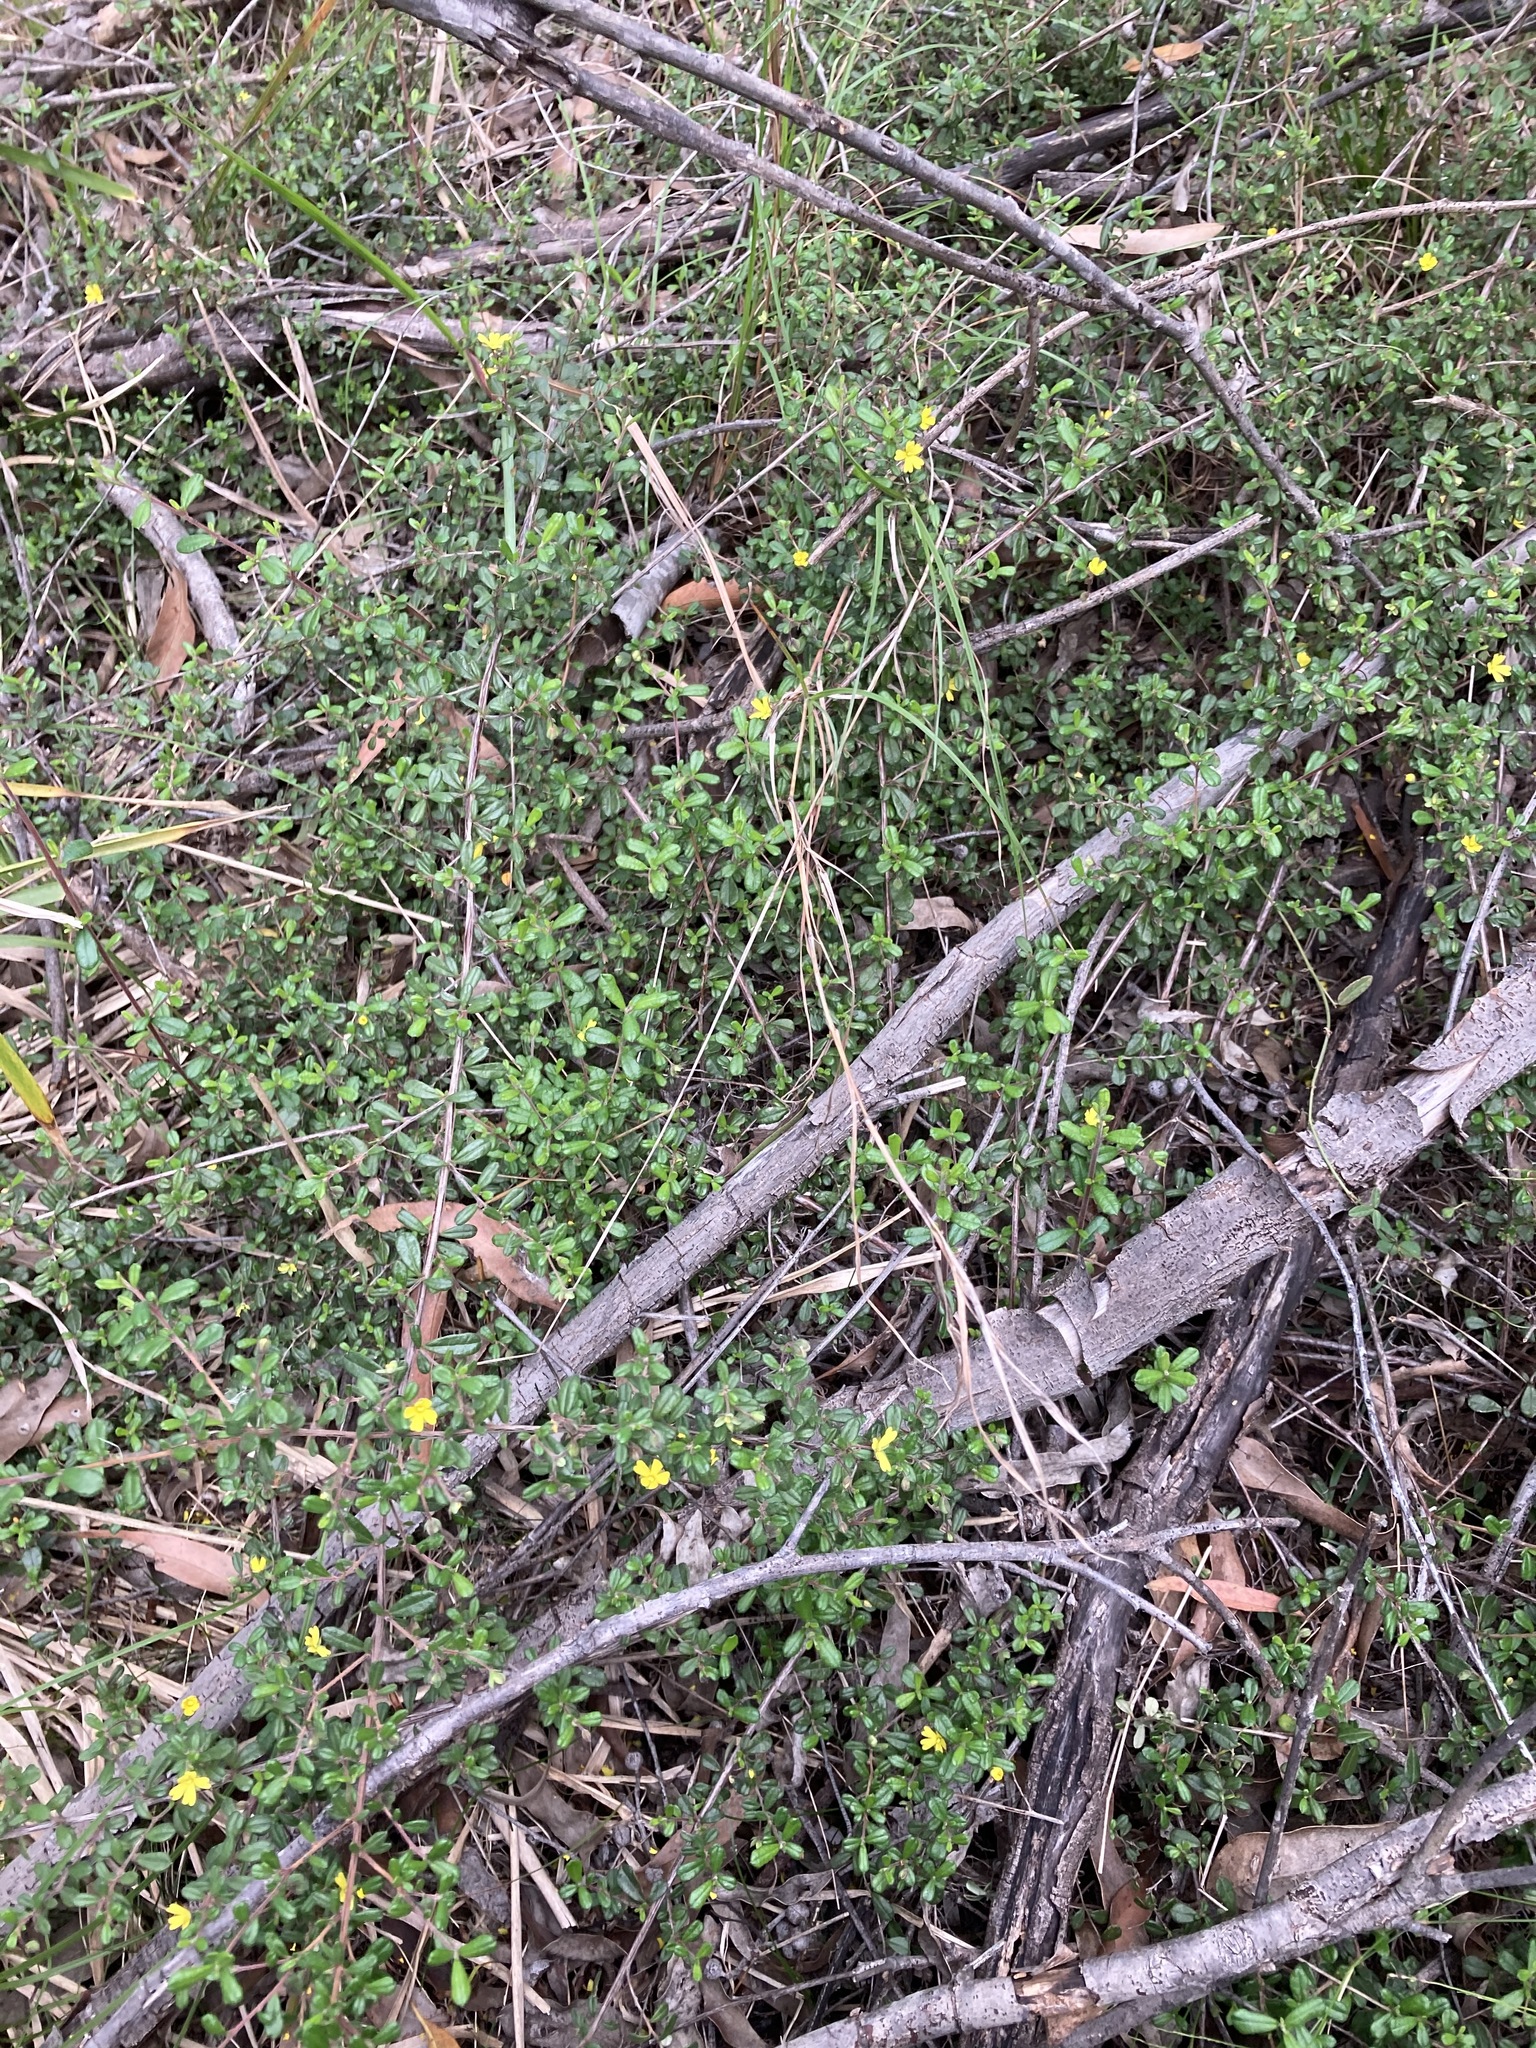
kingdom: Plantae
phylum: Tracheophyta
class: Magnoliopsida
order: Dilleniales
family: Dilleniaceae
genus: Hibbertia
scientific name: Hibbertia aspera
